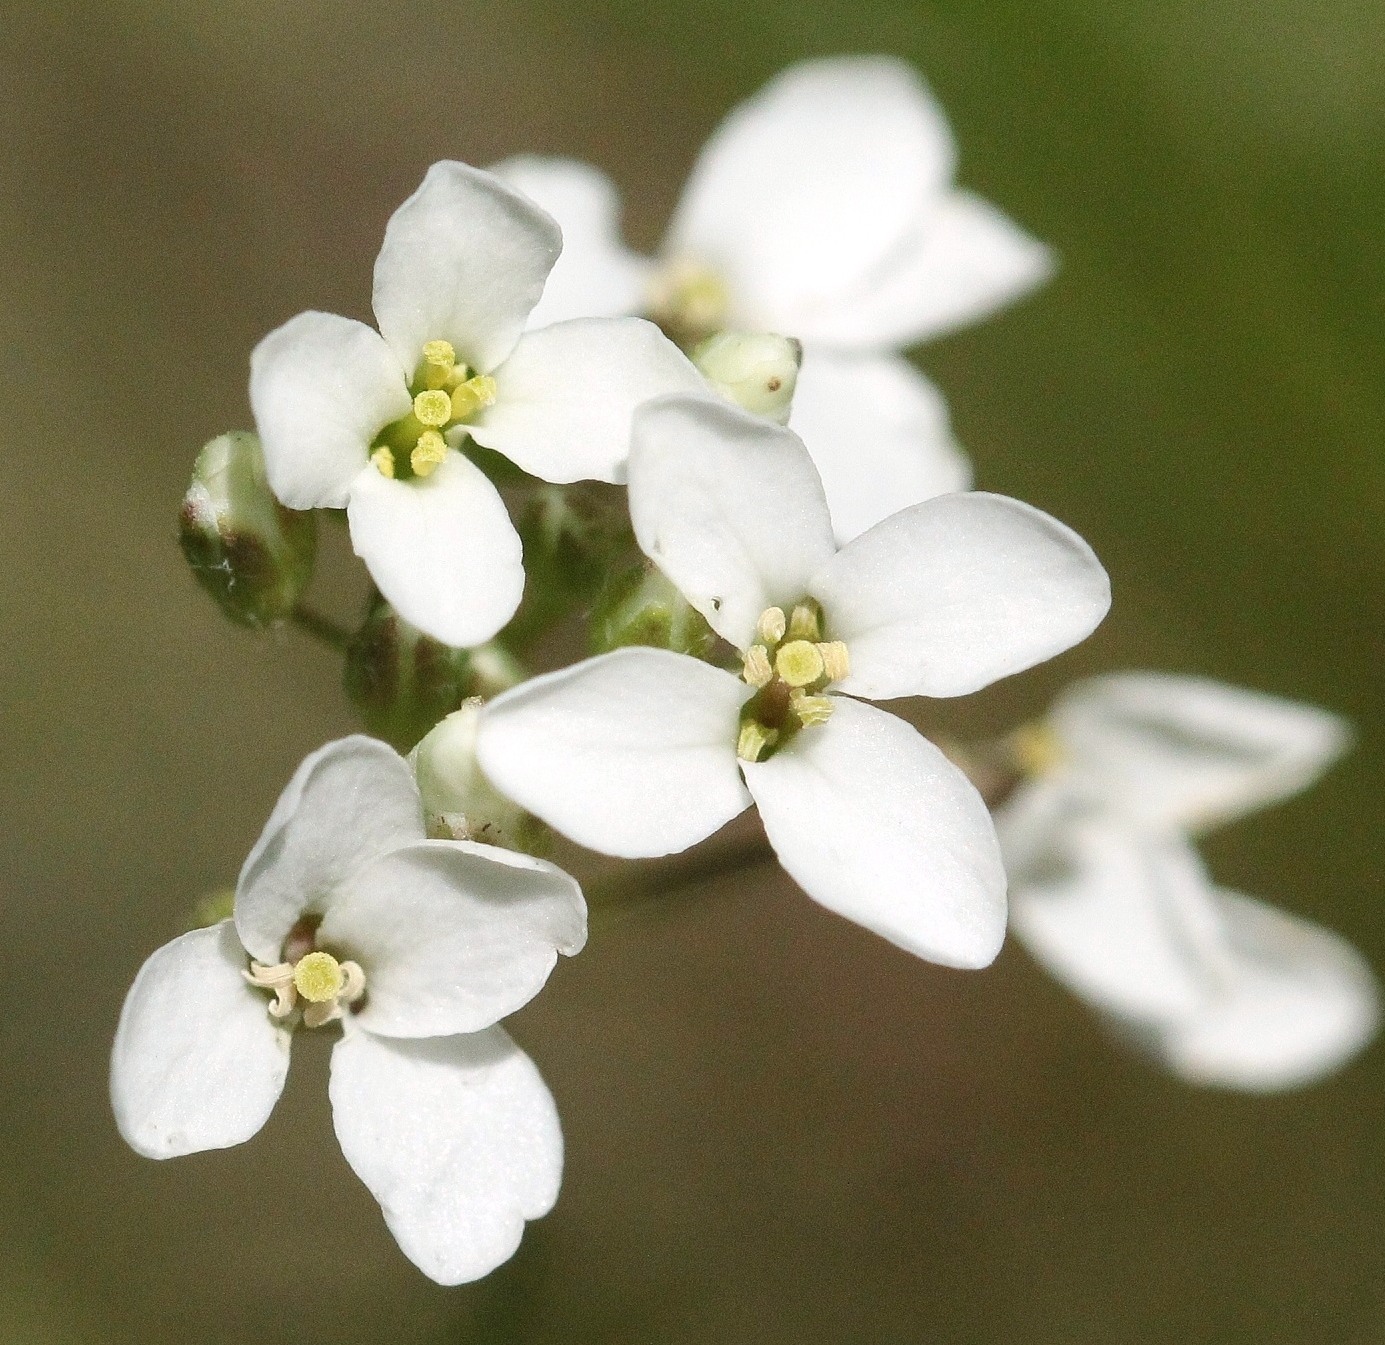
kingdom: Plantae
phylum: Tracheophyta
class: Magnoliopsida
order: Brassicales
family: Brassicaceae
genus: Capsella
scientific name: Capsella bursa-pastoris
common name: Shepherd's purse
